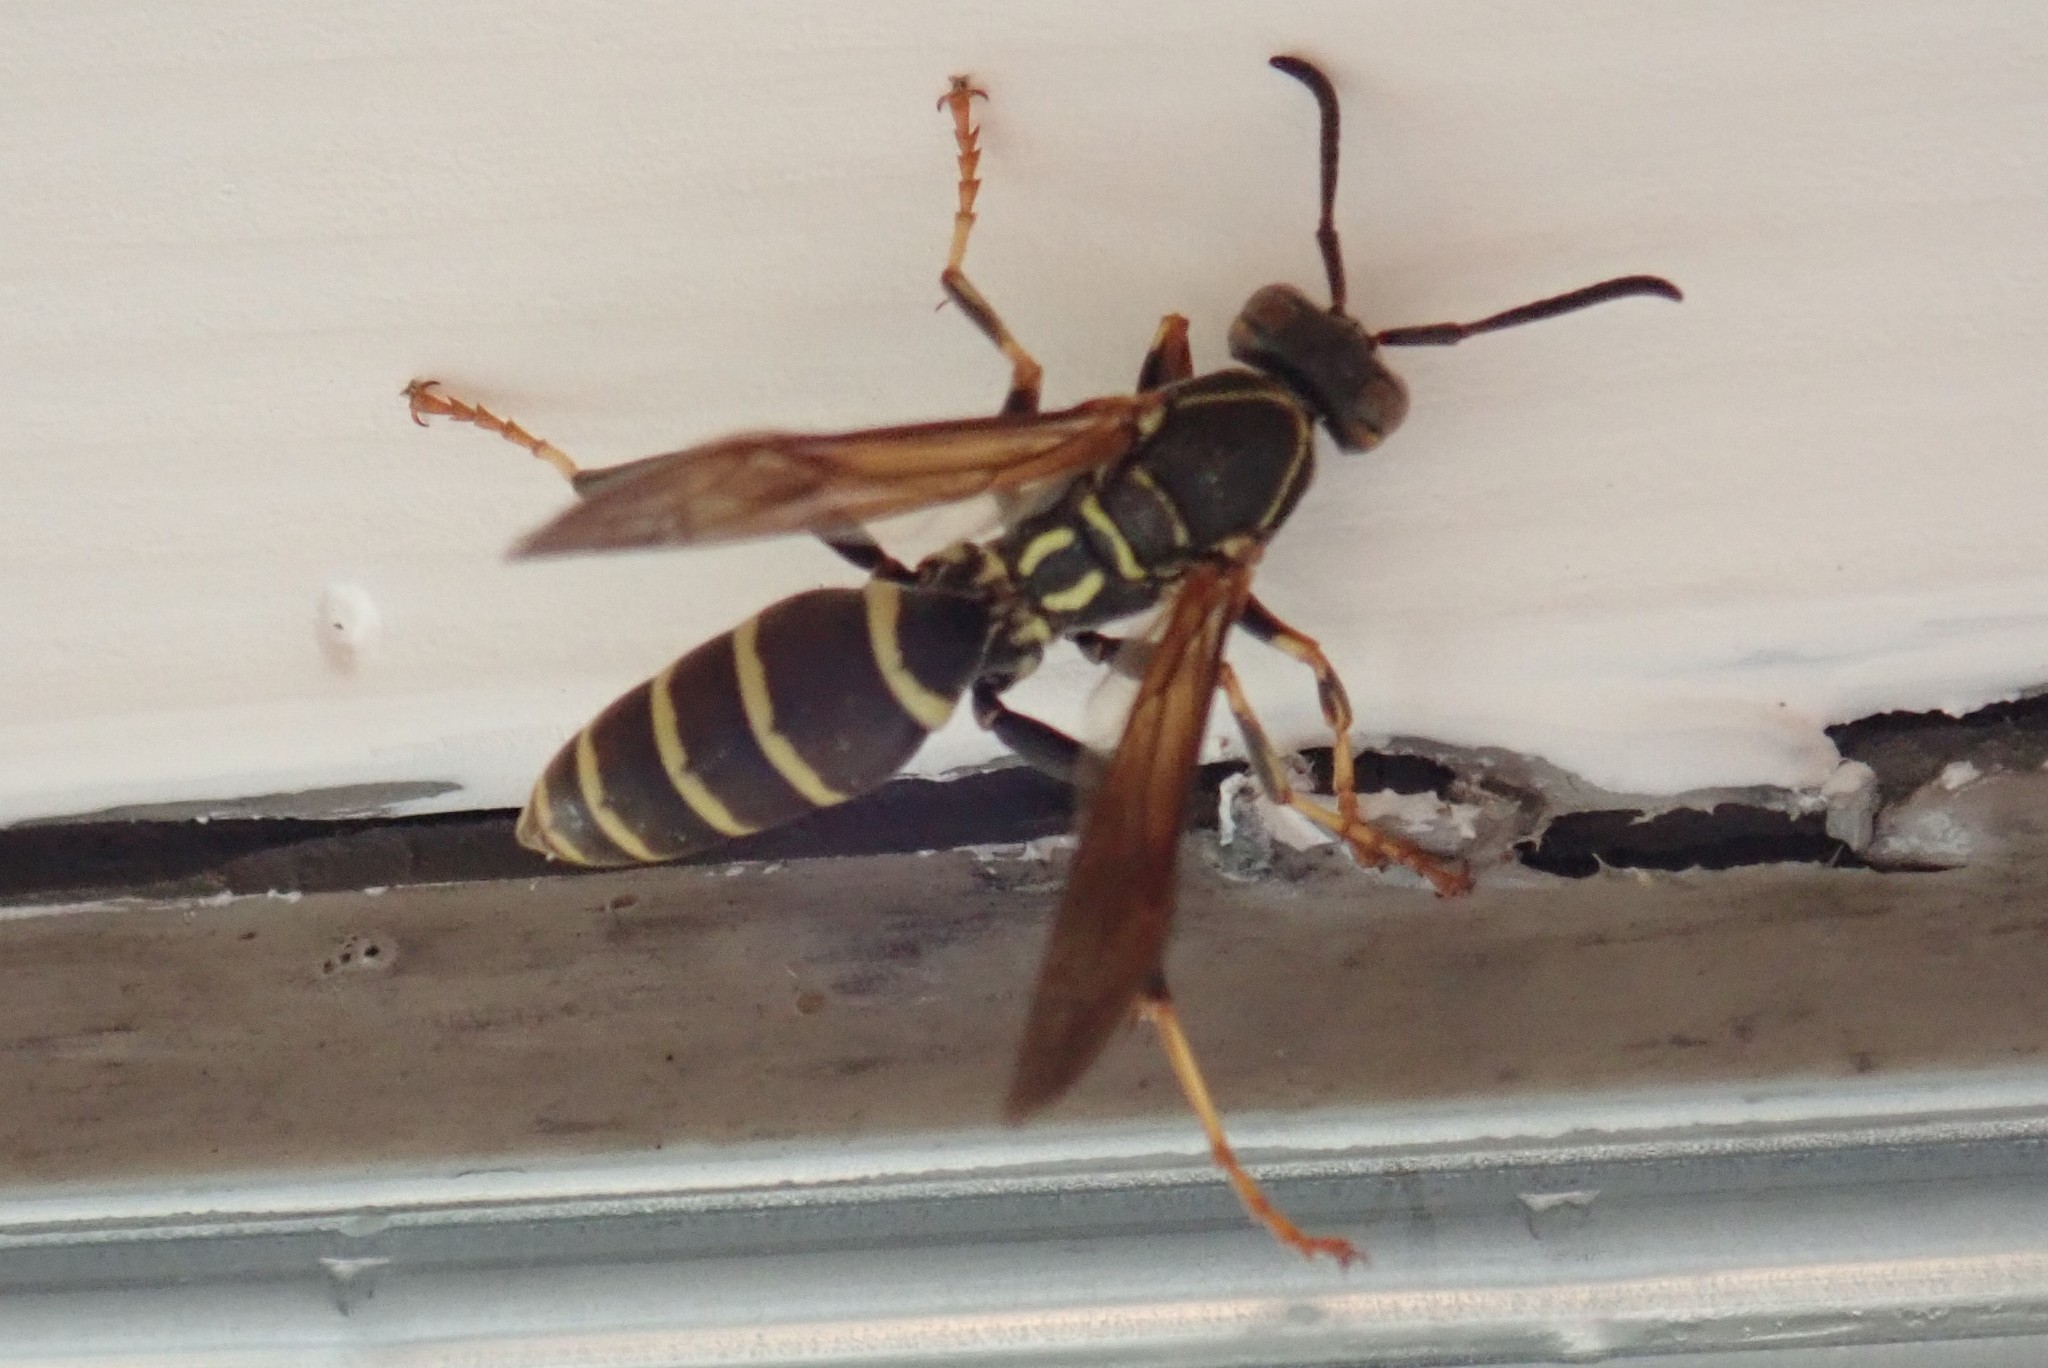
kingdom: Animalia
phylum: Arthropoda
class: Insecta
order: Hymenoptera
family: Eumenidae
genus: Polistes
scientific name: Polistes fuscatus
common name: Dark paper wasp
